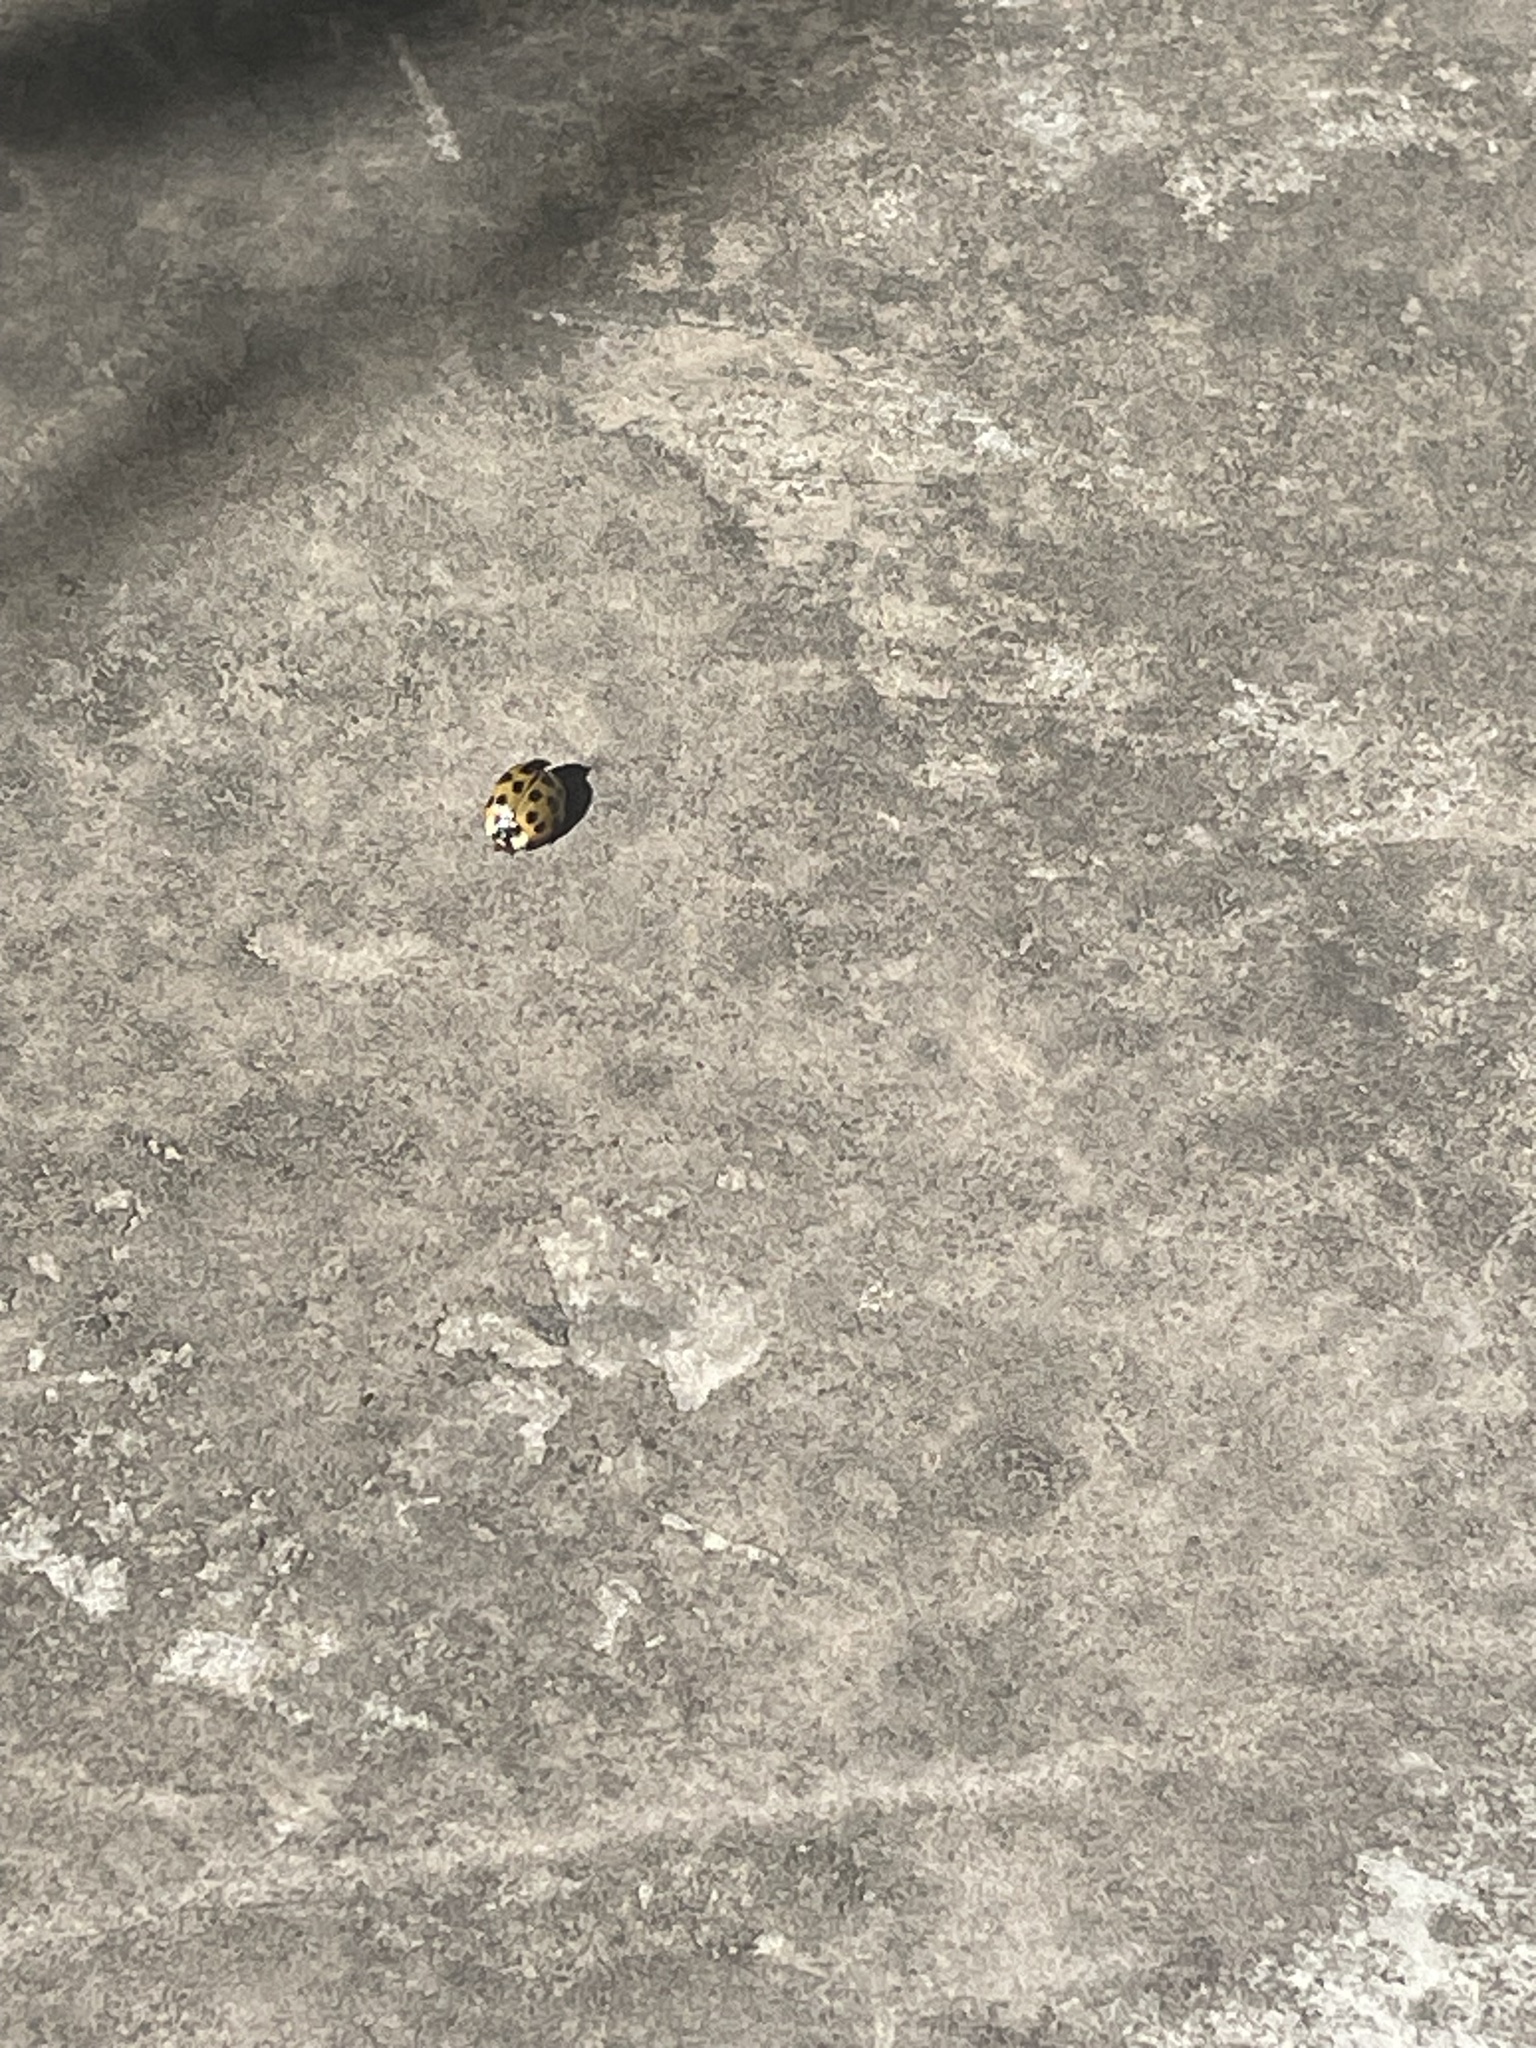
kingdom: Animalia
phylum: Arthropoda
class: Insecta
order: Coleoptera
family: Coccinellidae
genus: Harmonia
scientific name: Harmonia axyridis
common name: Harlequin ladybird
